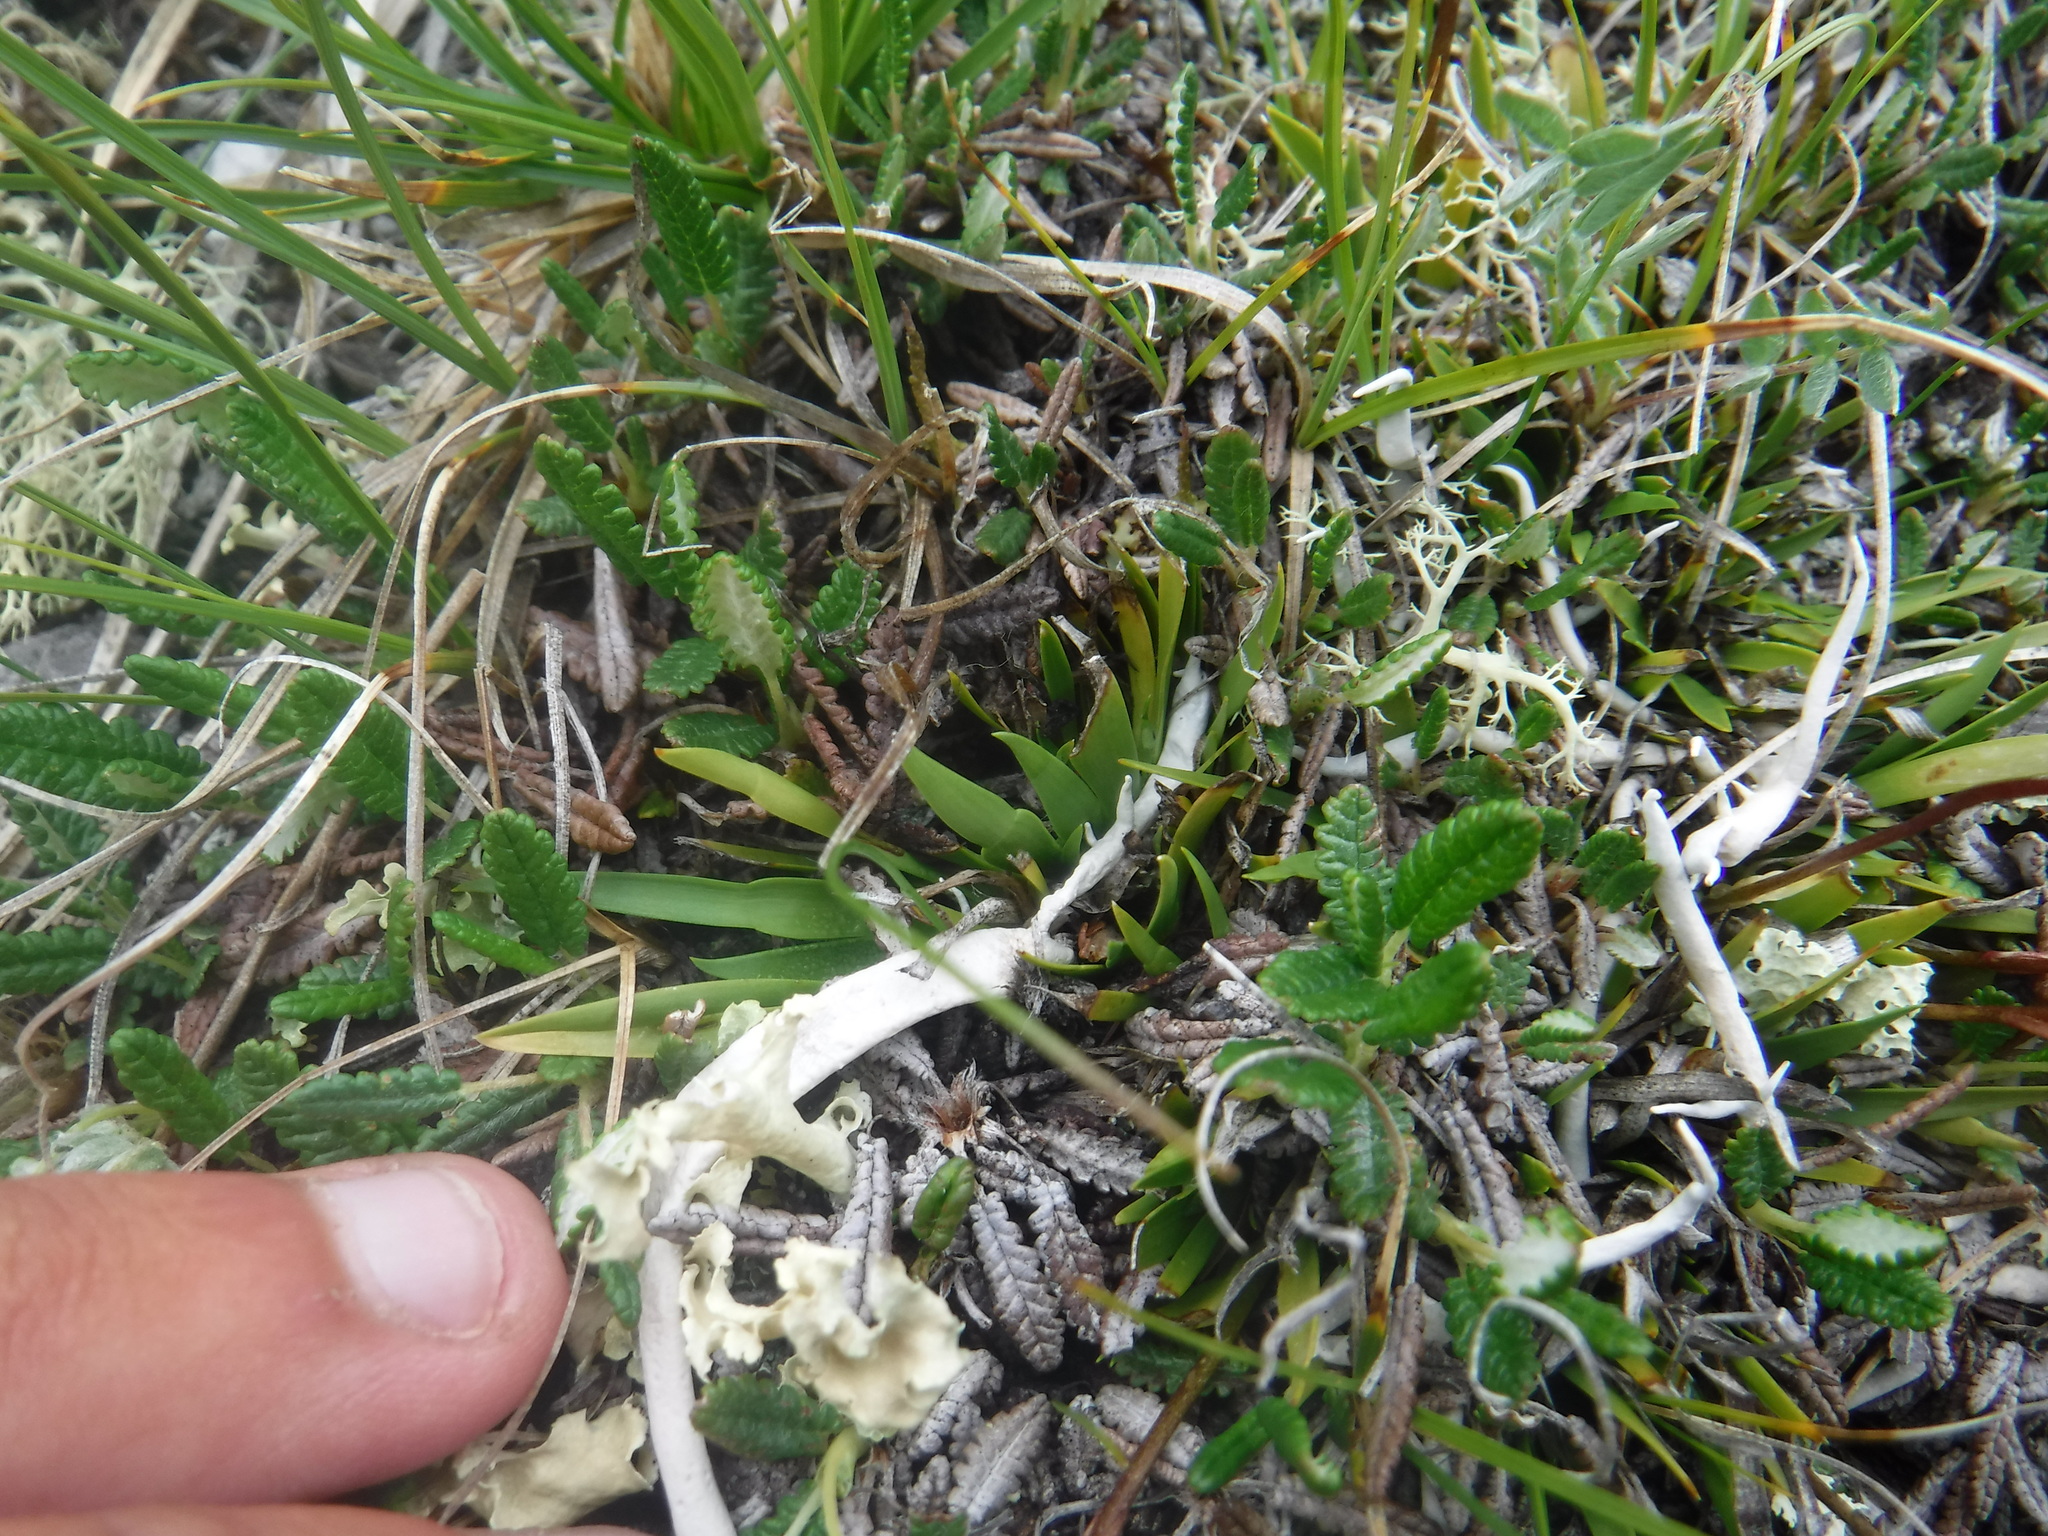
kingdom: Plantae
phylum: Tracheophyta
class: Liliopsida
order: Alismatales
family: Tofieldiaceae
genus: Tofieldia
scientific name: Tofieldia coccinea
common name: Northern false asphodel
